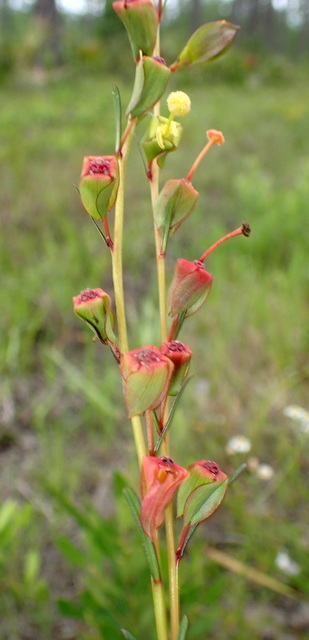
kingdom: Plantae
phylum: Tracheophyta
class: Magnoliopsida
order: Myrtales
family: Onagraceae
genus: Ludwigia
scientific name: Ludwigia virgata
